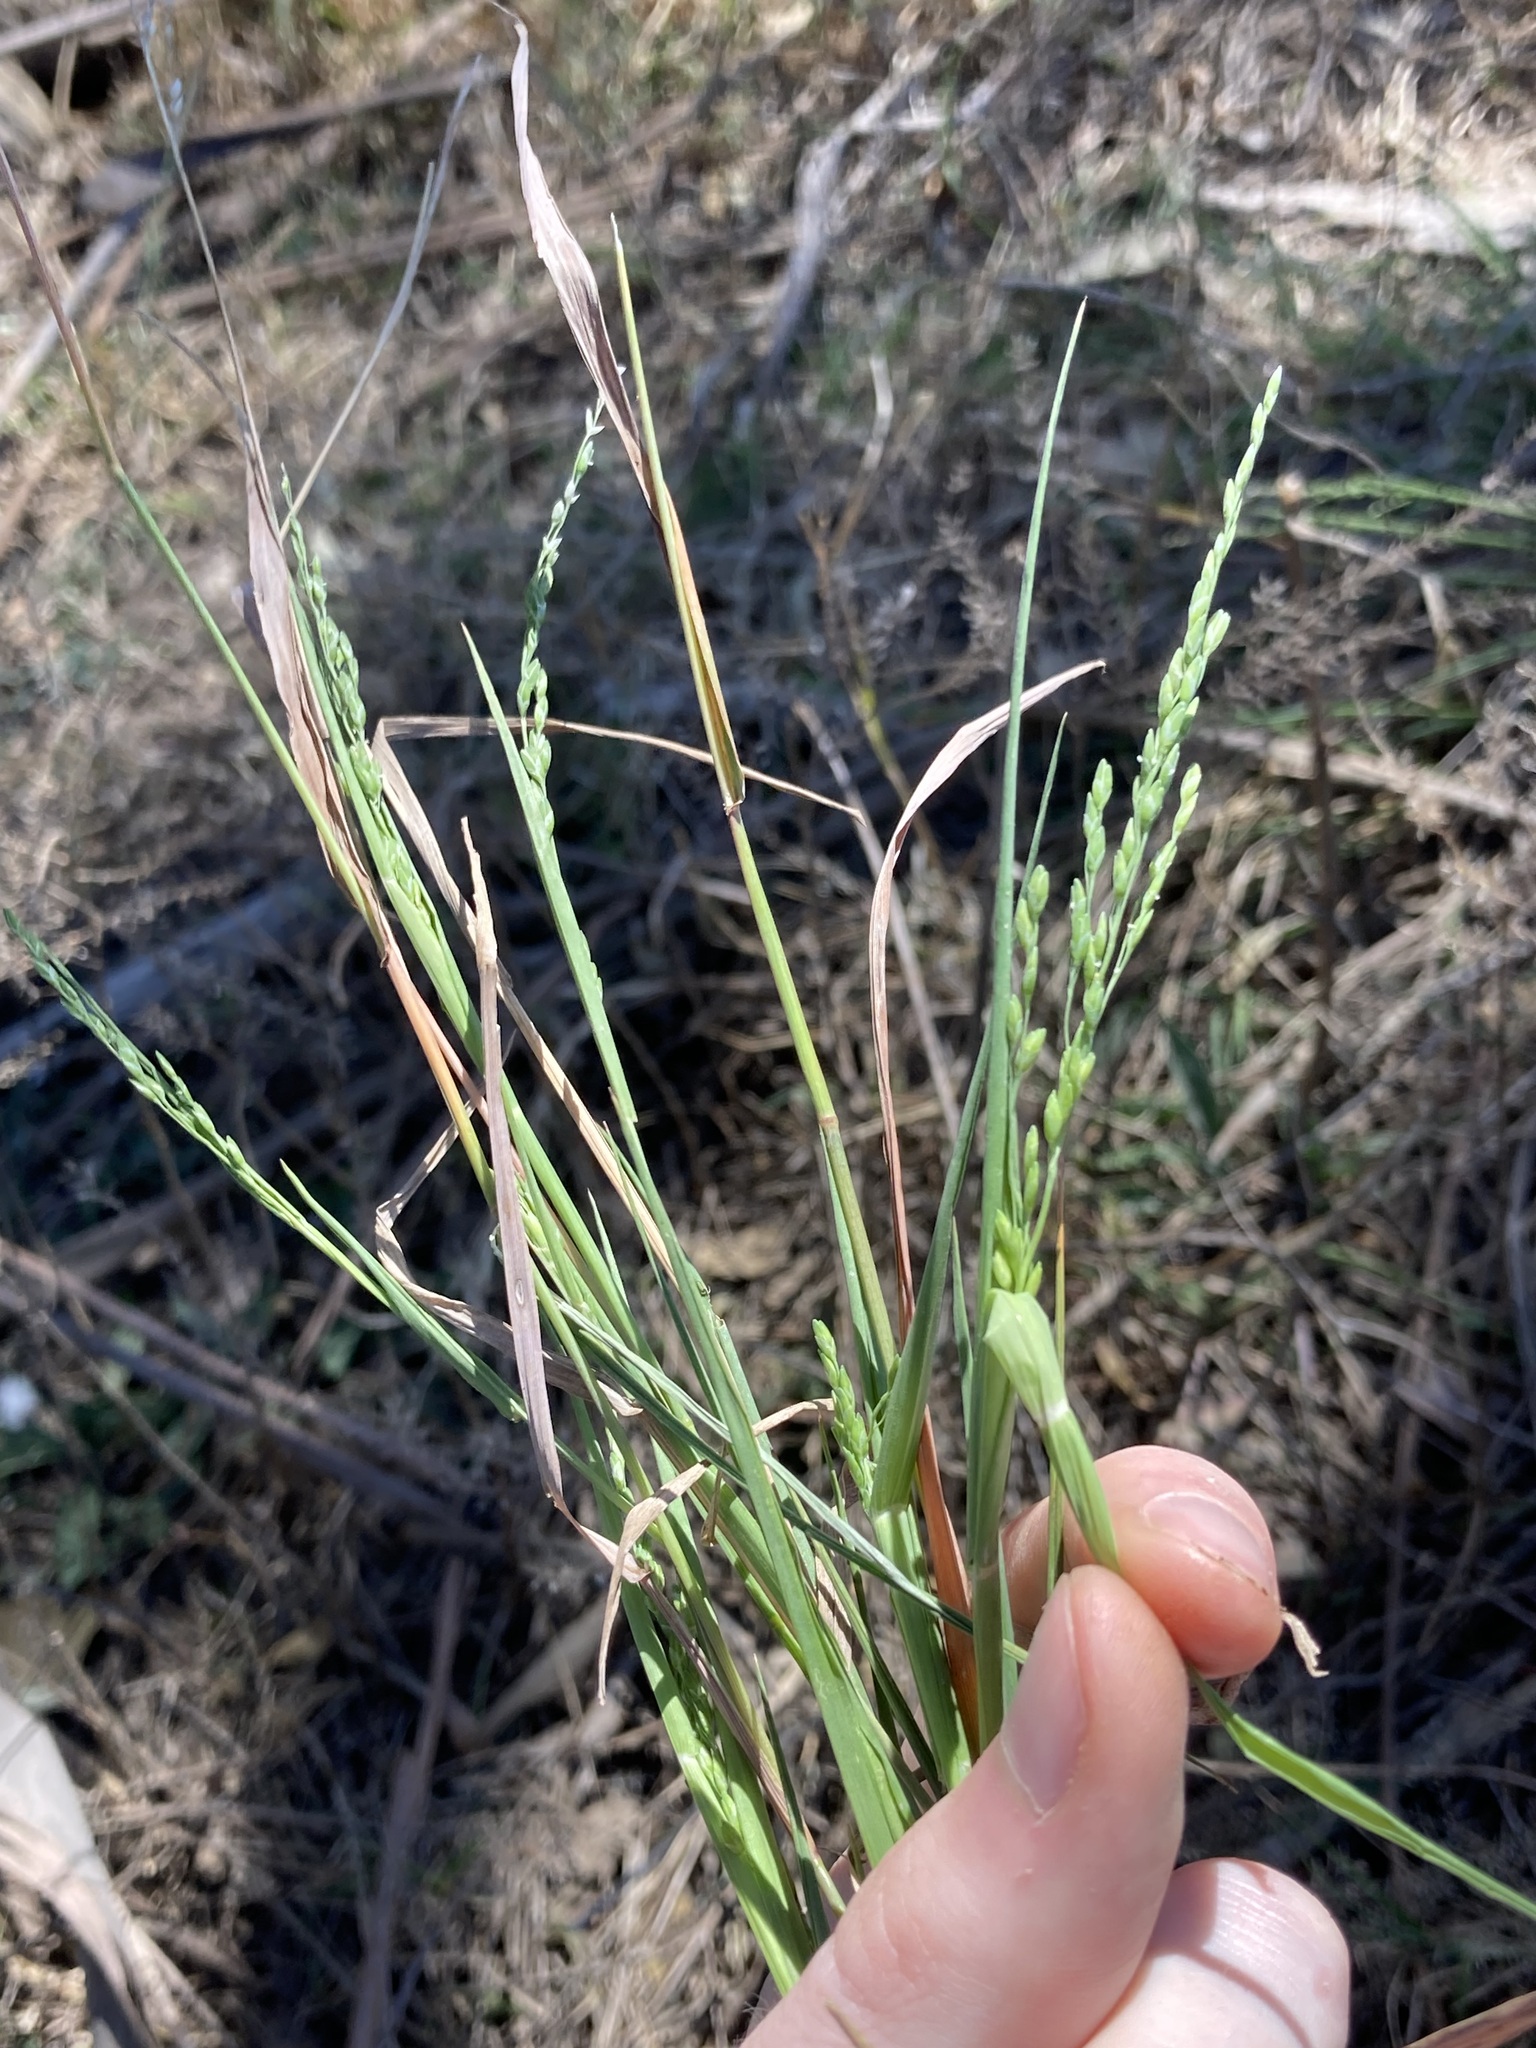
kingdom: Plantae
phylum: Tracheophyta
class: Liliopsida
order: Poales
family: Poaceae
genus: Ehrharta
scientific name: Ehrharta erecta
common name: Panic veldtgrass
